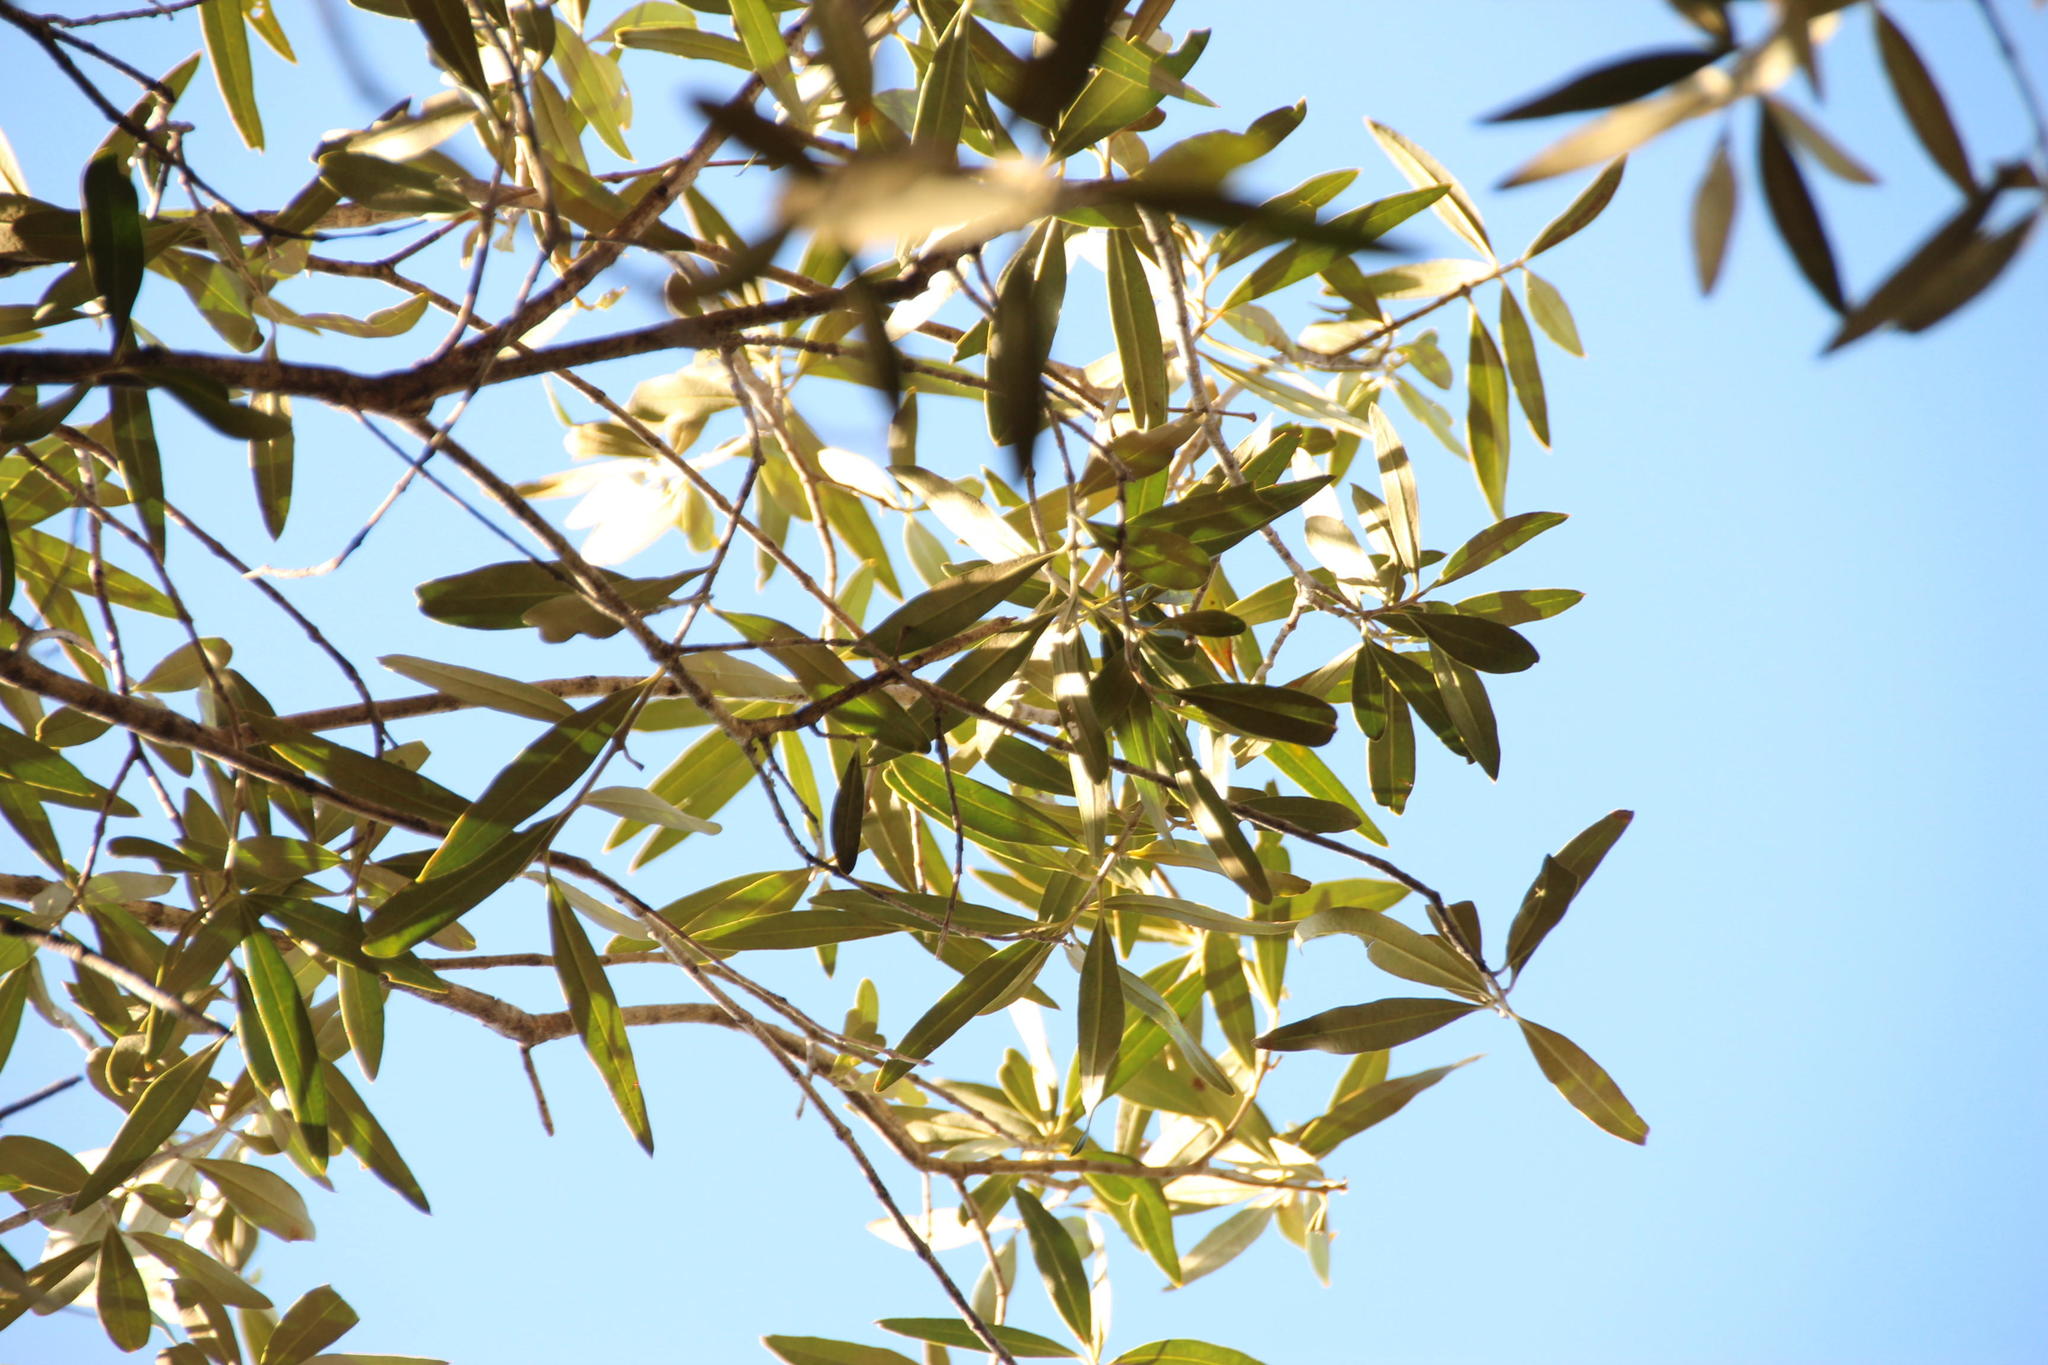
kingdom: Plantae
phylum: Tracheophyta
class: Magnoliopsida
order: Lamiales
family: Oleaceae
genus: Olea
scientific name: Olea europaea
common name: Olive
